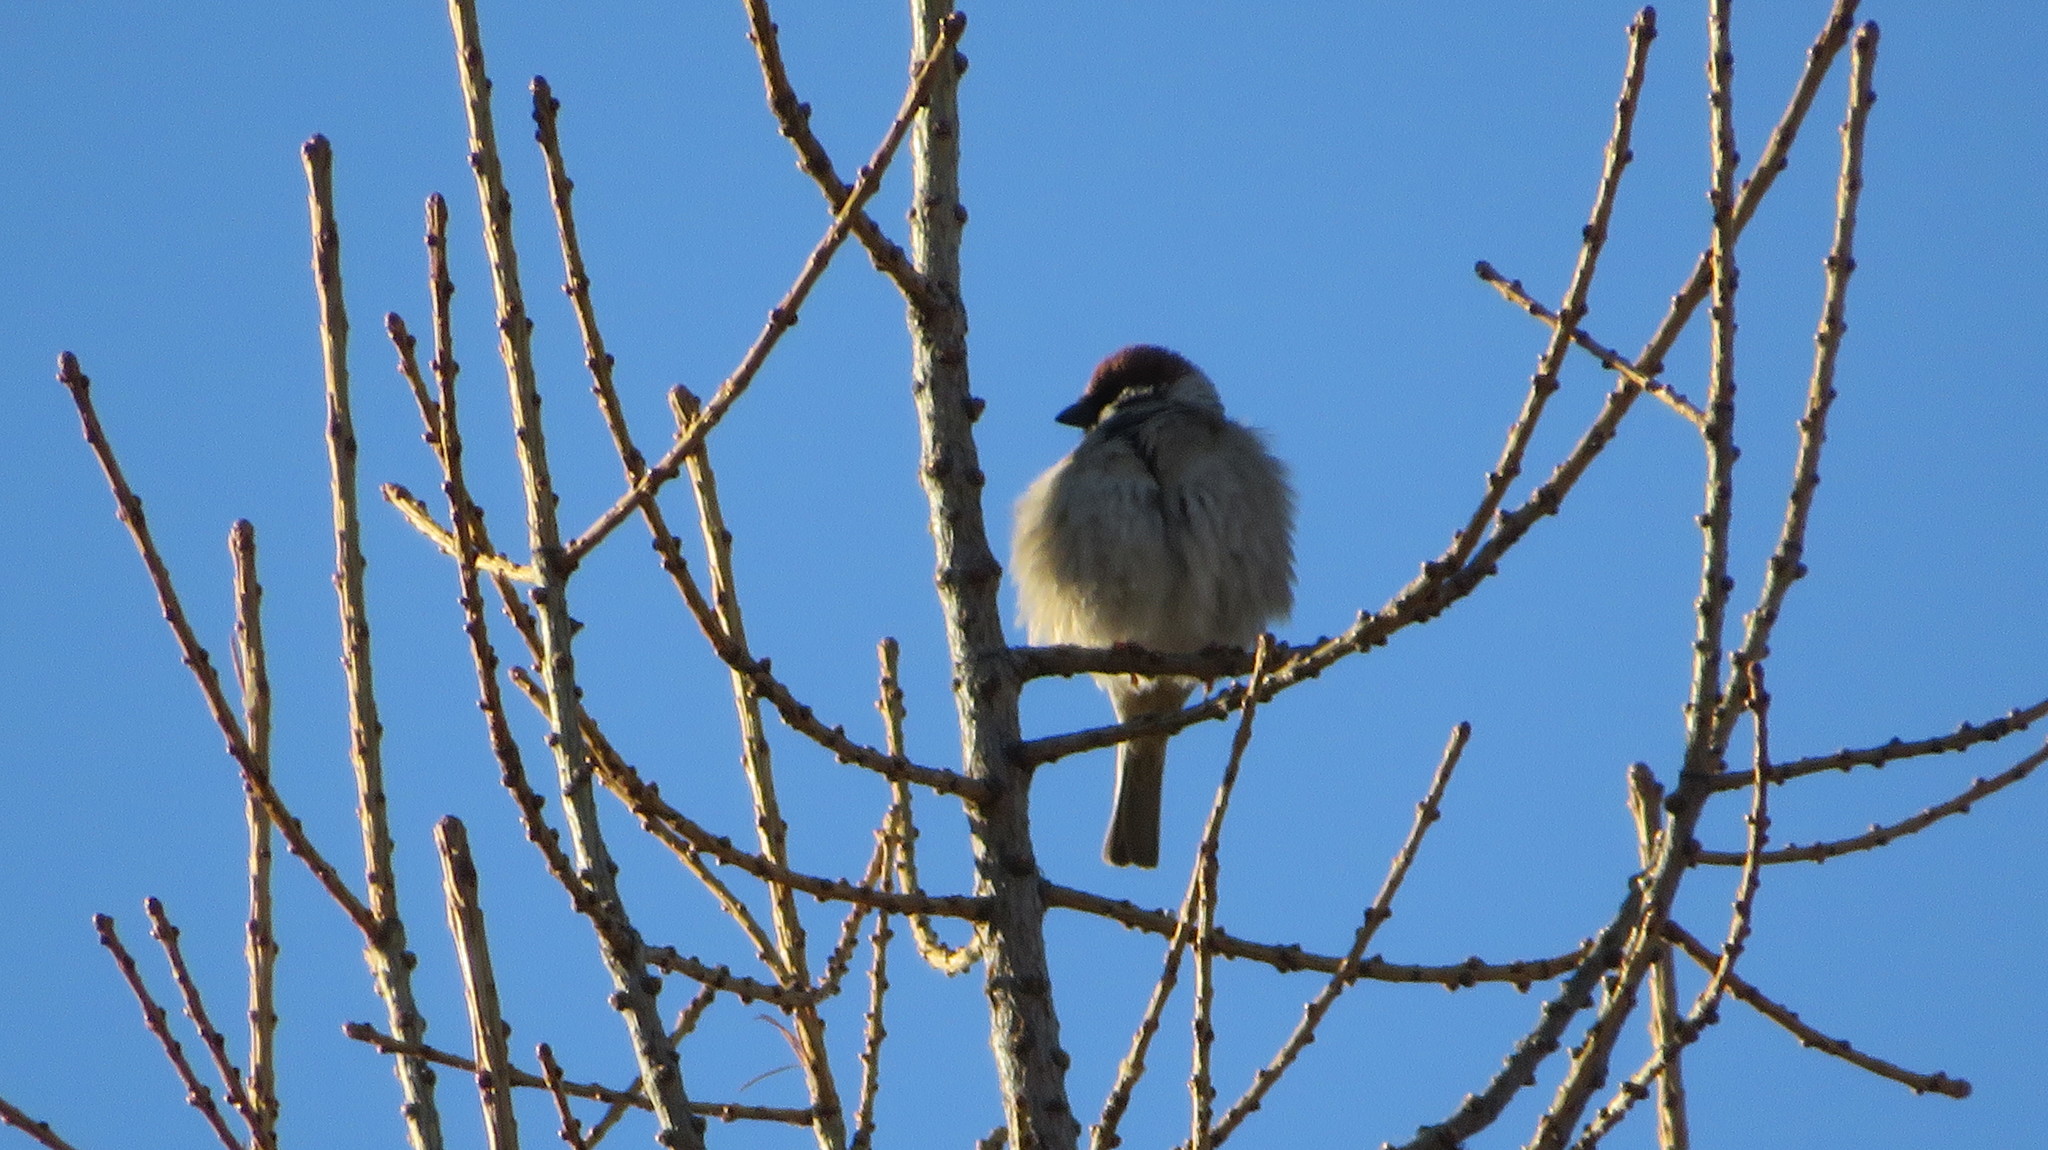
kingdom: Animalia
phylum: Chordata
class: Aves
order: Passeriformes
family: Passeridae
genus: Passer
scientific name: Passer montanus
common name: Eurasian tree sparrow
